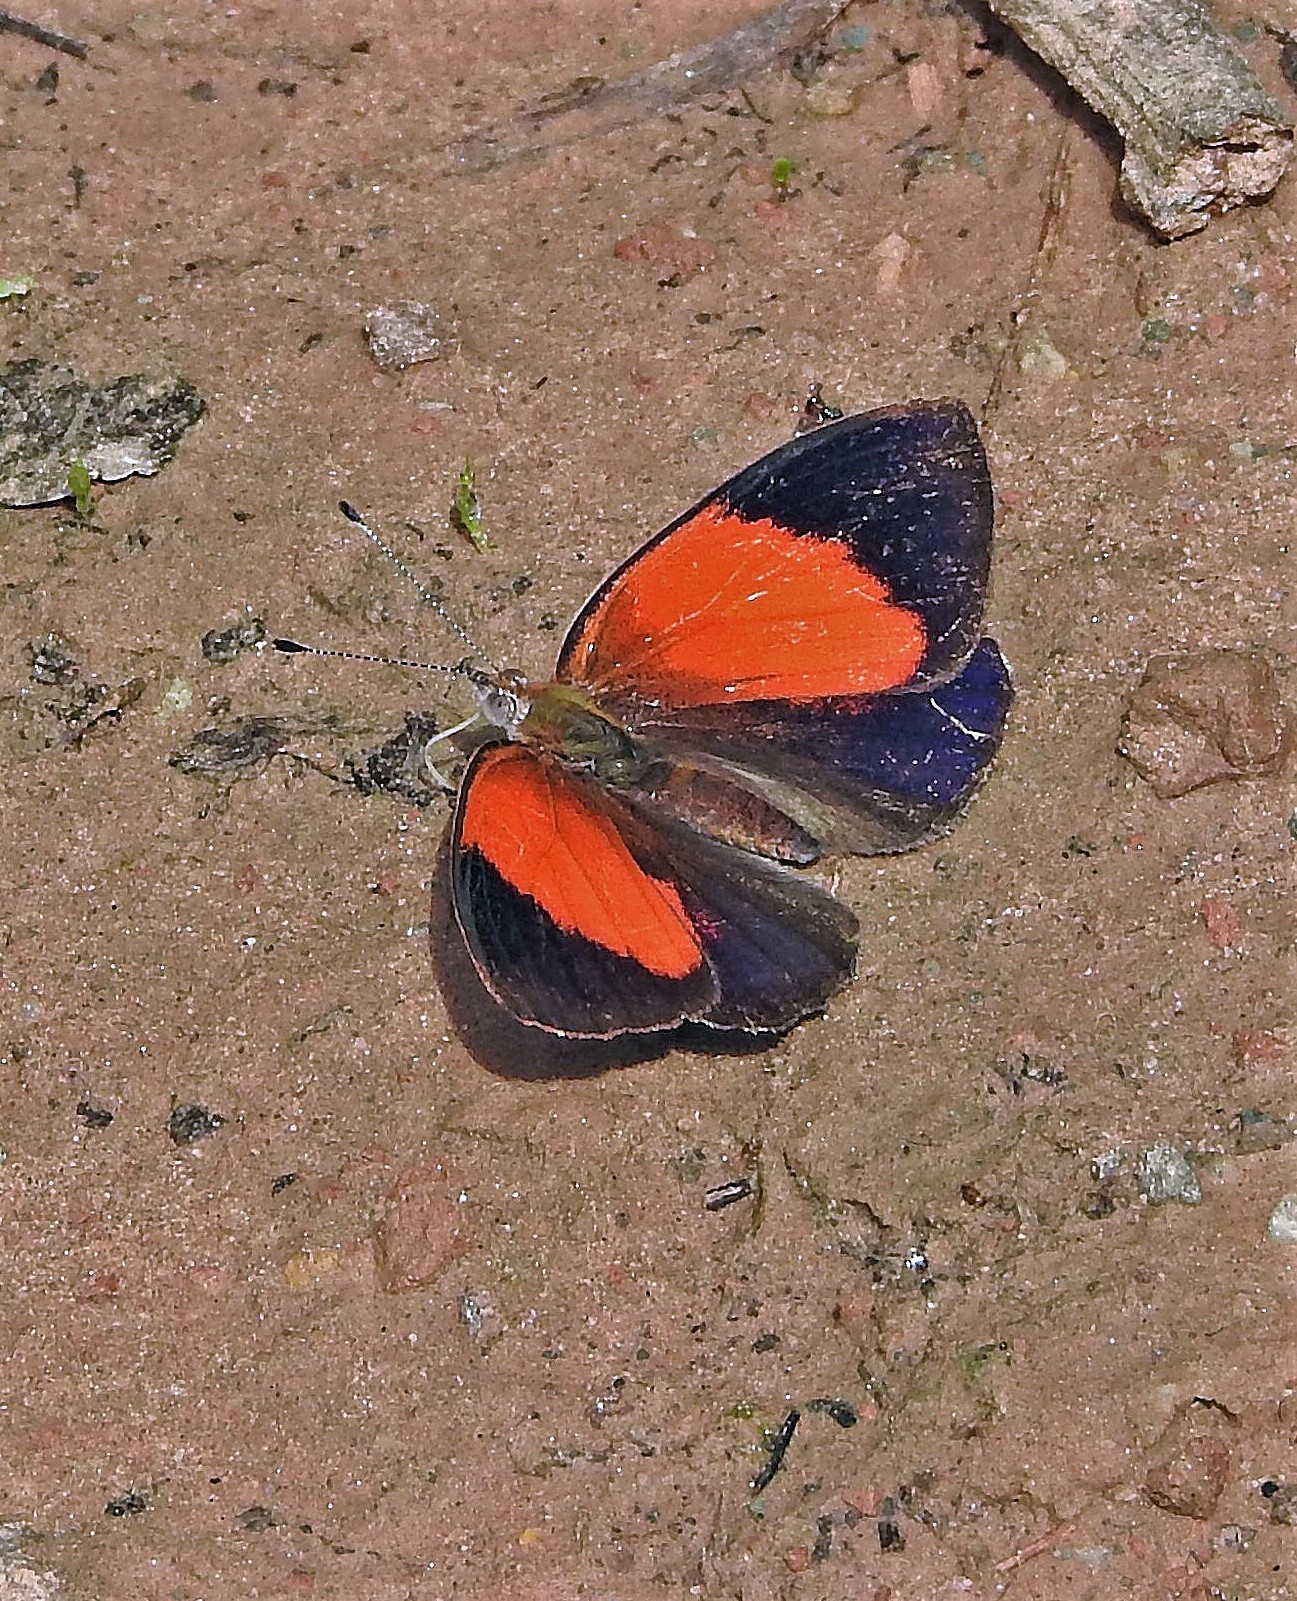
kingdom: Animalia
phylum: Arthropoda
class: Insecta
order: Lepidoptera
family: Nymphalidae
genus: Haematera
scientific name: Haematera pyrame
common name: Blind eighty-eight
